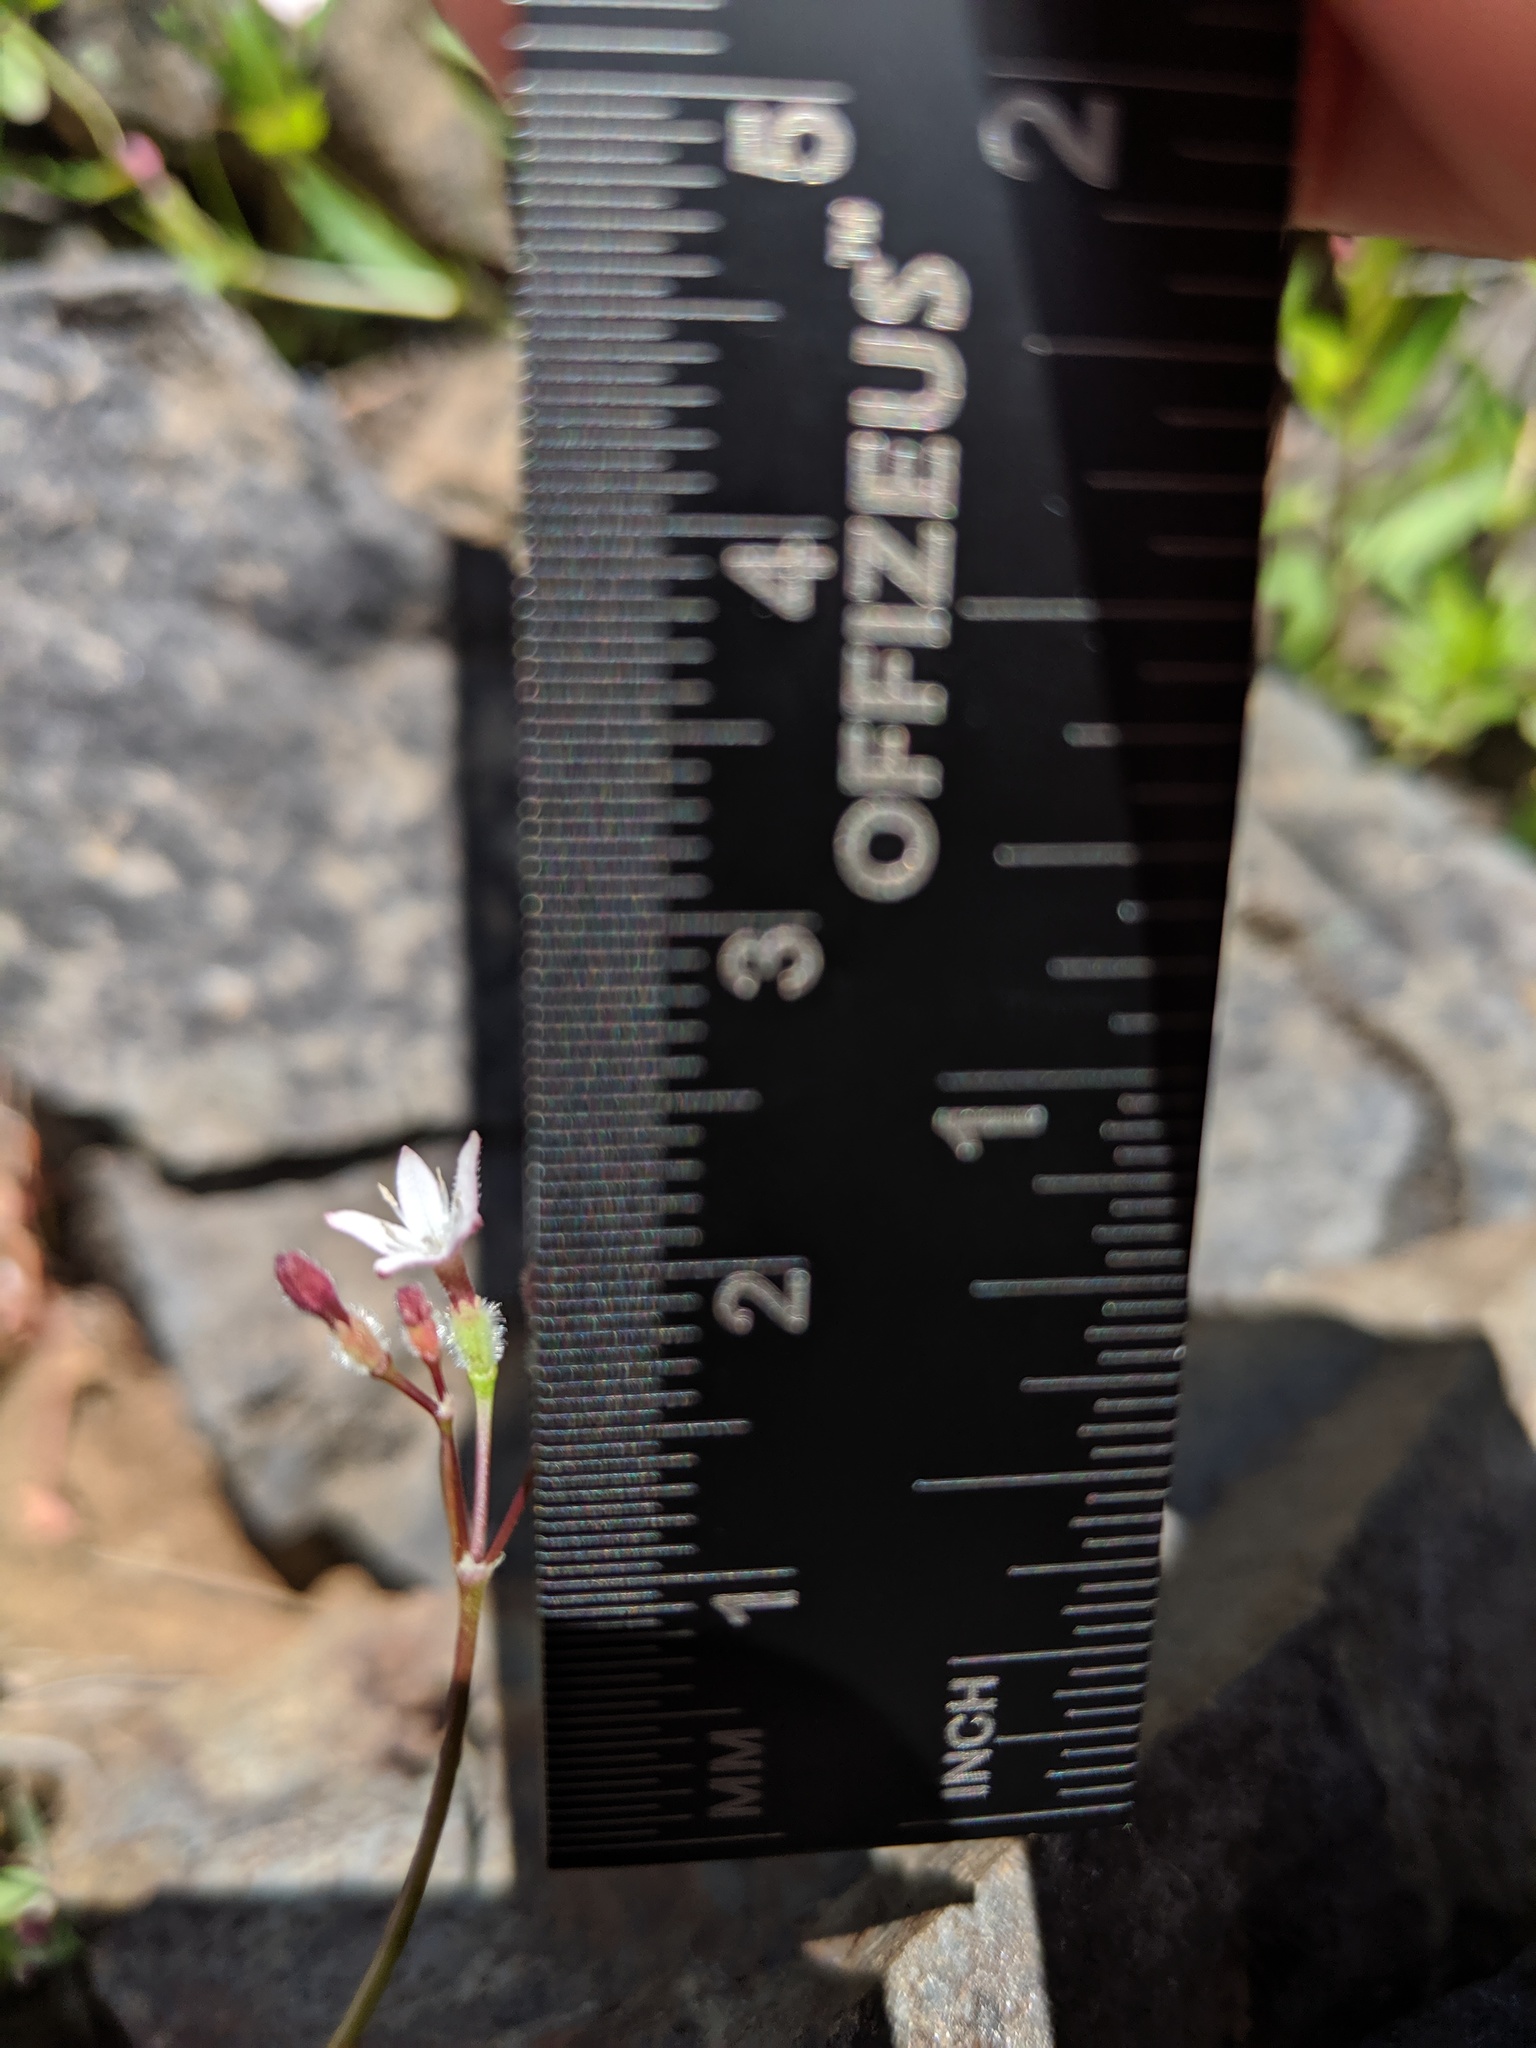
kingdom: Plantae
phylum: Tracheophyta
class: Magnoliopsida
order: Gentianales
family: Rubiaceae
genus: Kelloggia
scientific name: Kelloggia galioides
